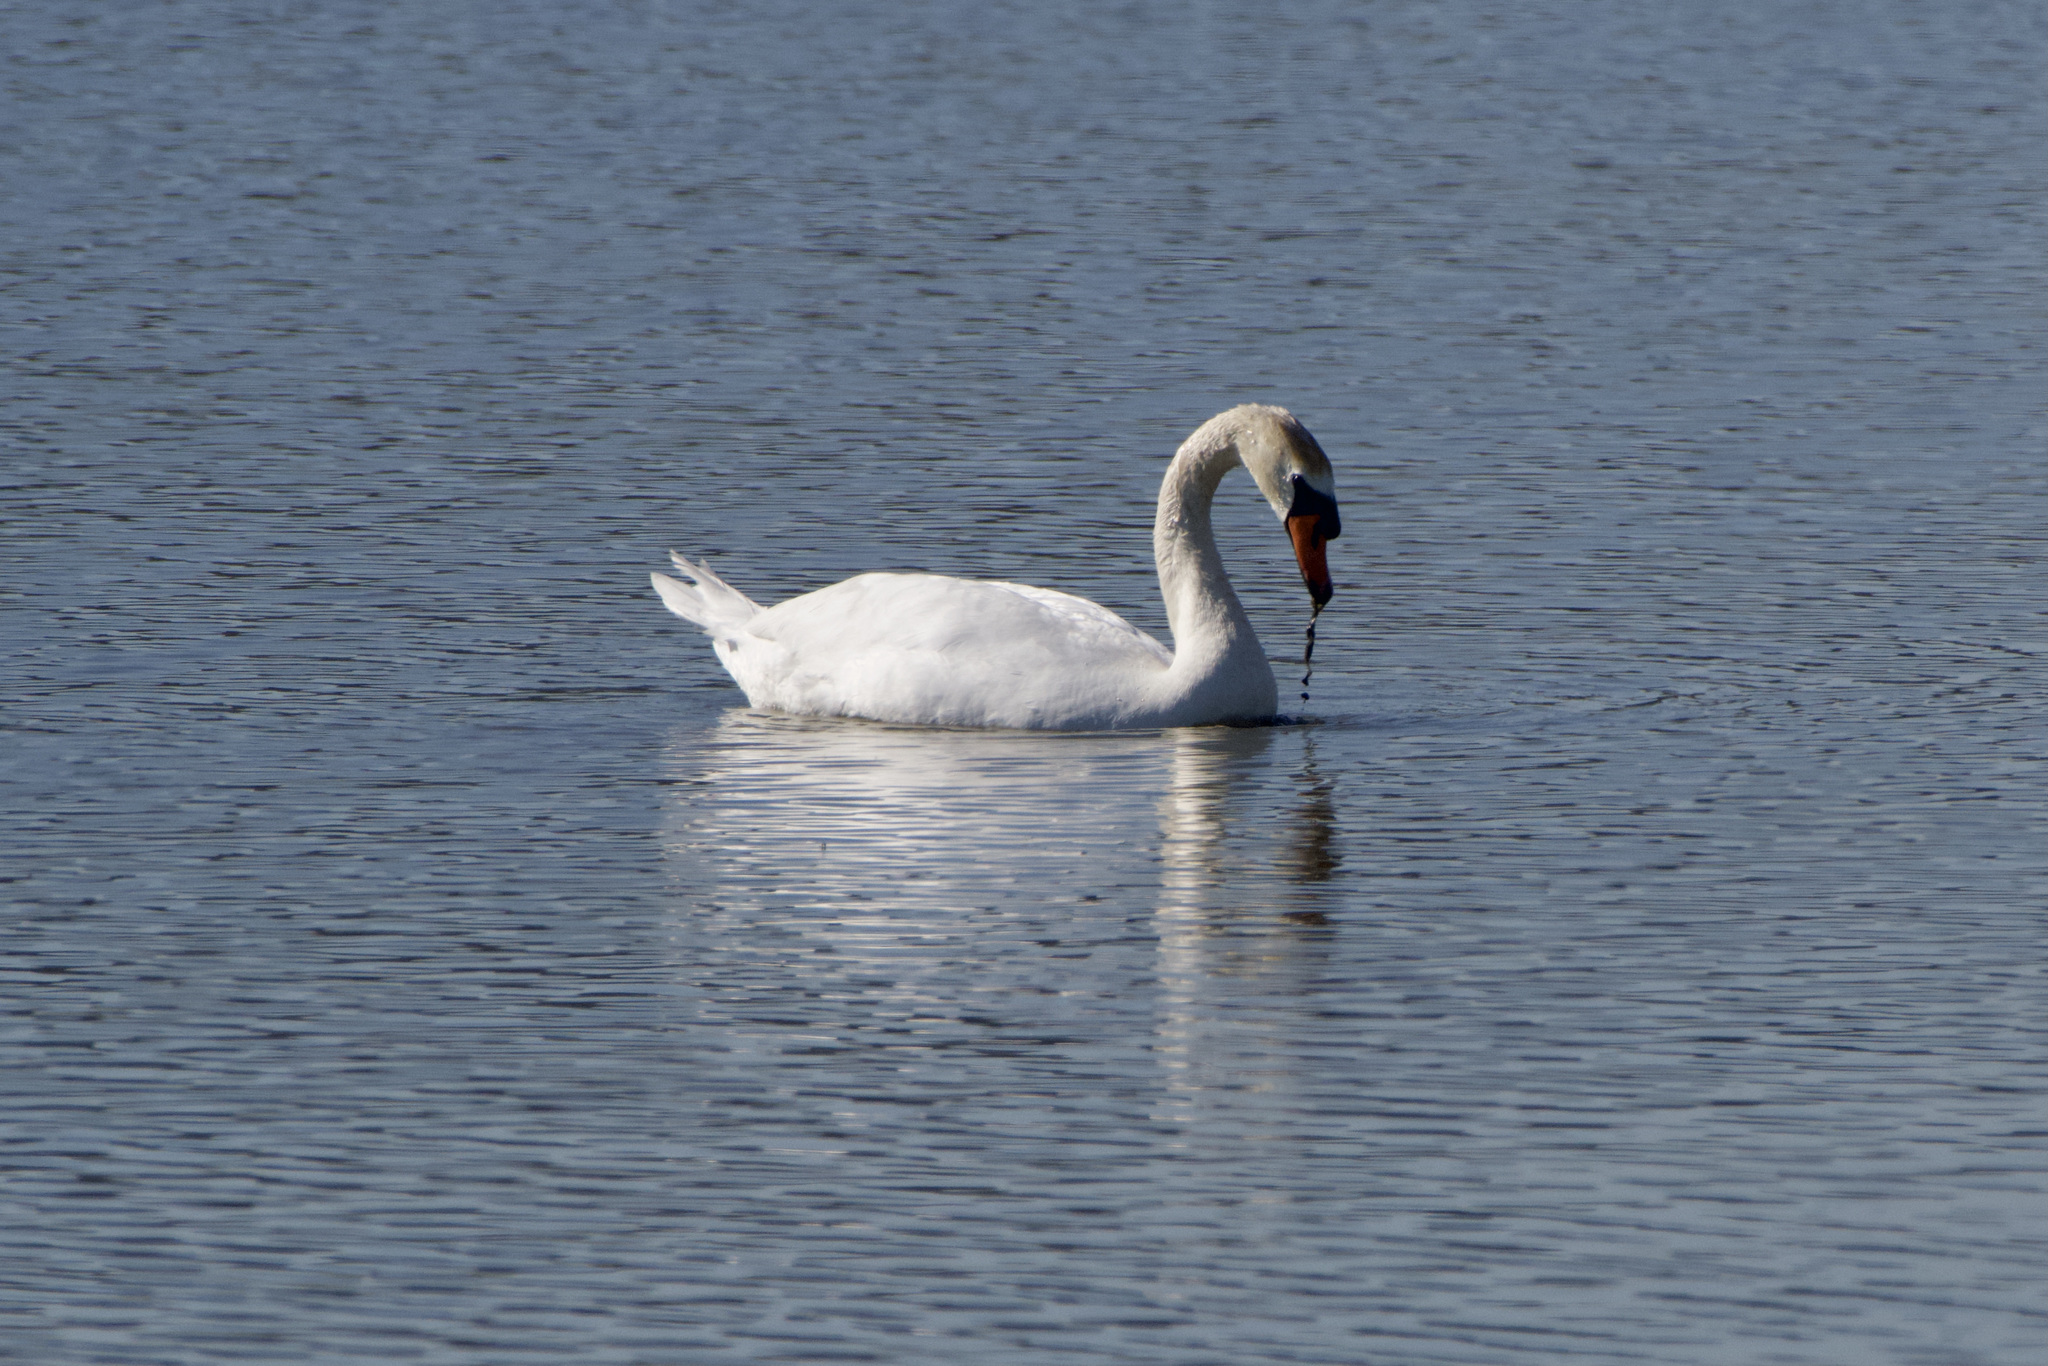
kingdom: Animalia
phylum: Chordata
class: Aves
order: Anseriformes
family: Anatidae
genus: Cygnus
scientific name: Cygnus olor
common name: Mute swan
